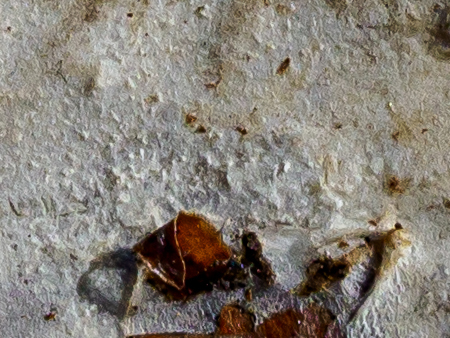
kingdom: Fungi
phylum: Basidiomycota
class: Agaricomycetes
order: Polyporales
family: Phanerochaetaceae
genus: Phlebiopsis
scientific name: Phlebiopsis gigantea
